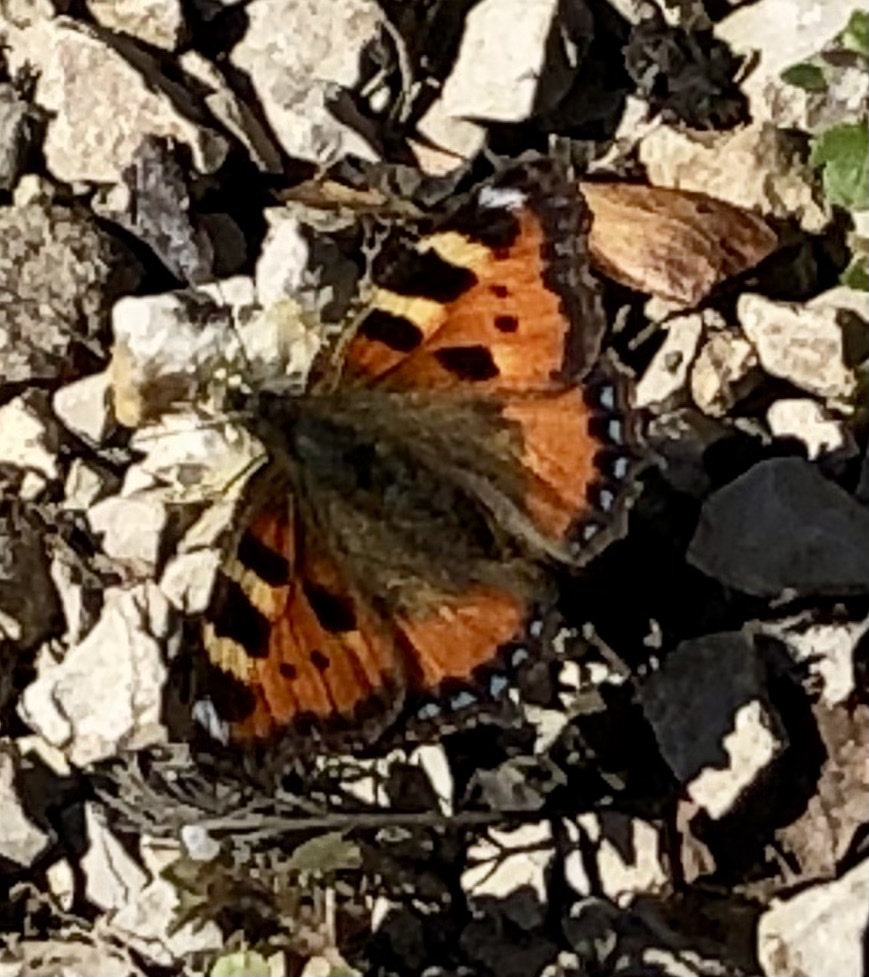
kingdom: Animalia
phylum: Arthropoda
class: Insecta
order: Lepidoptera
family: Nymphalidae
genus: Aglais
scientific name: Aglais urticae
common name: Small tortoiseshell
